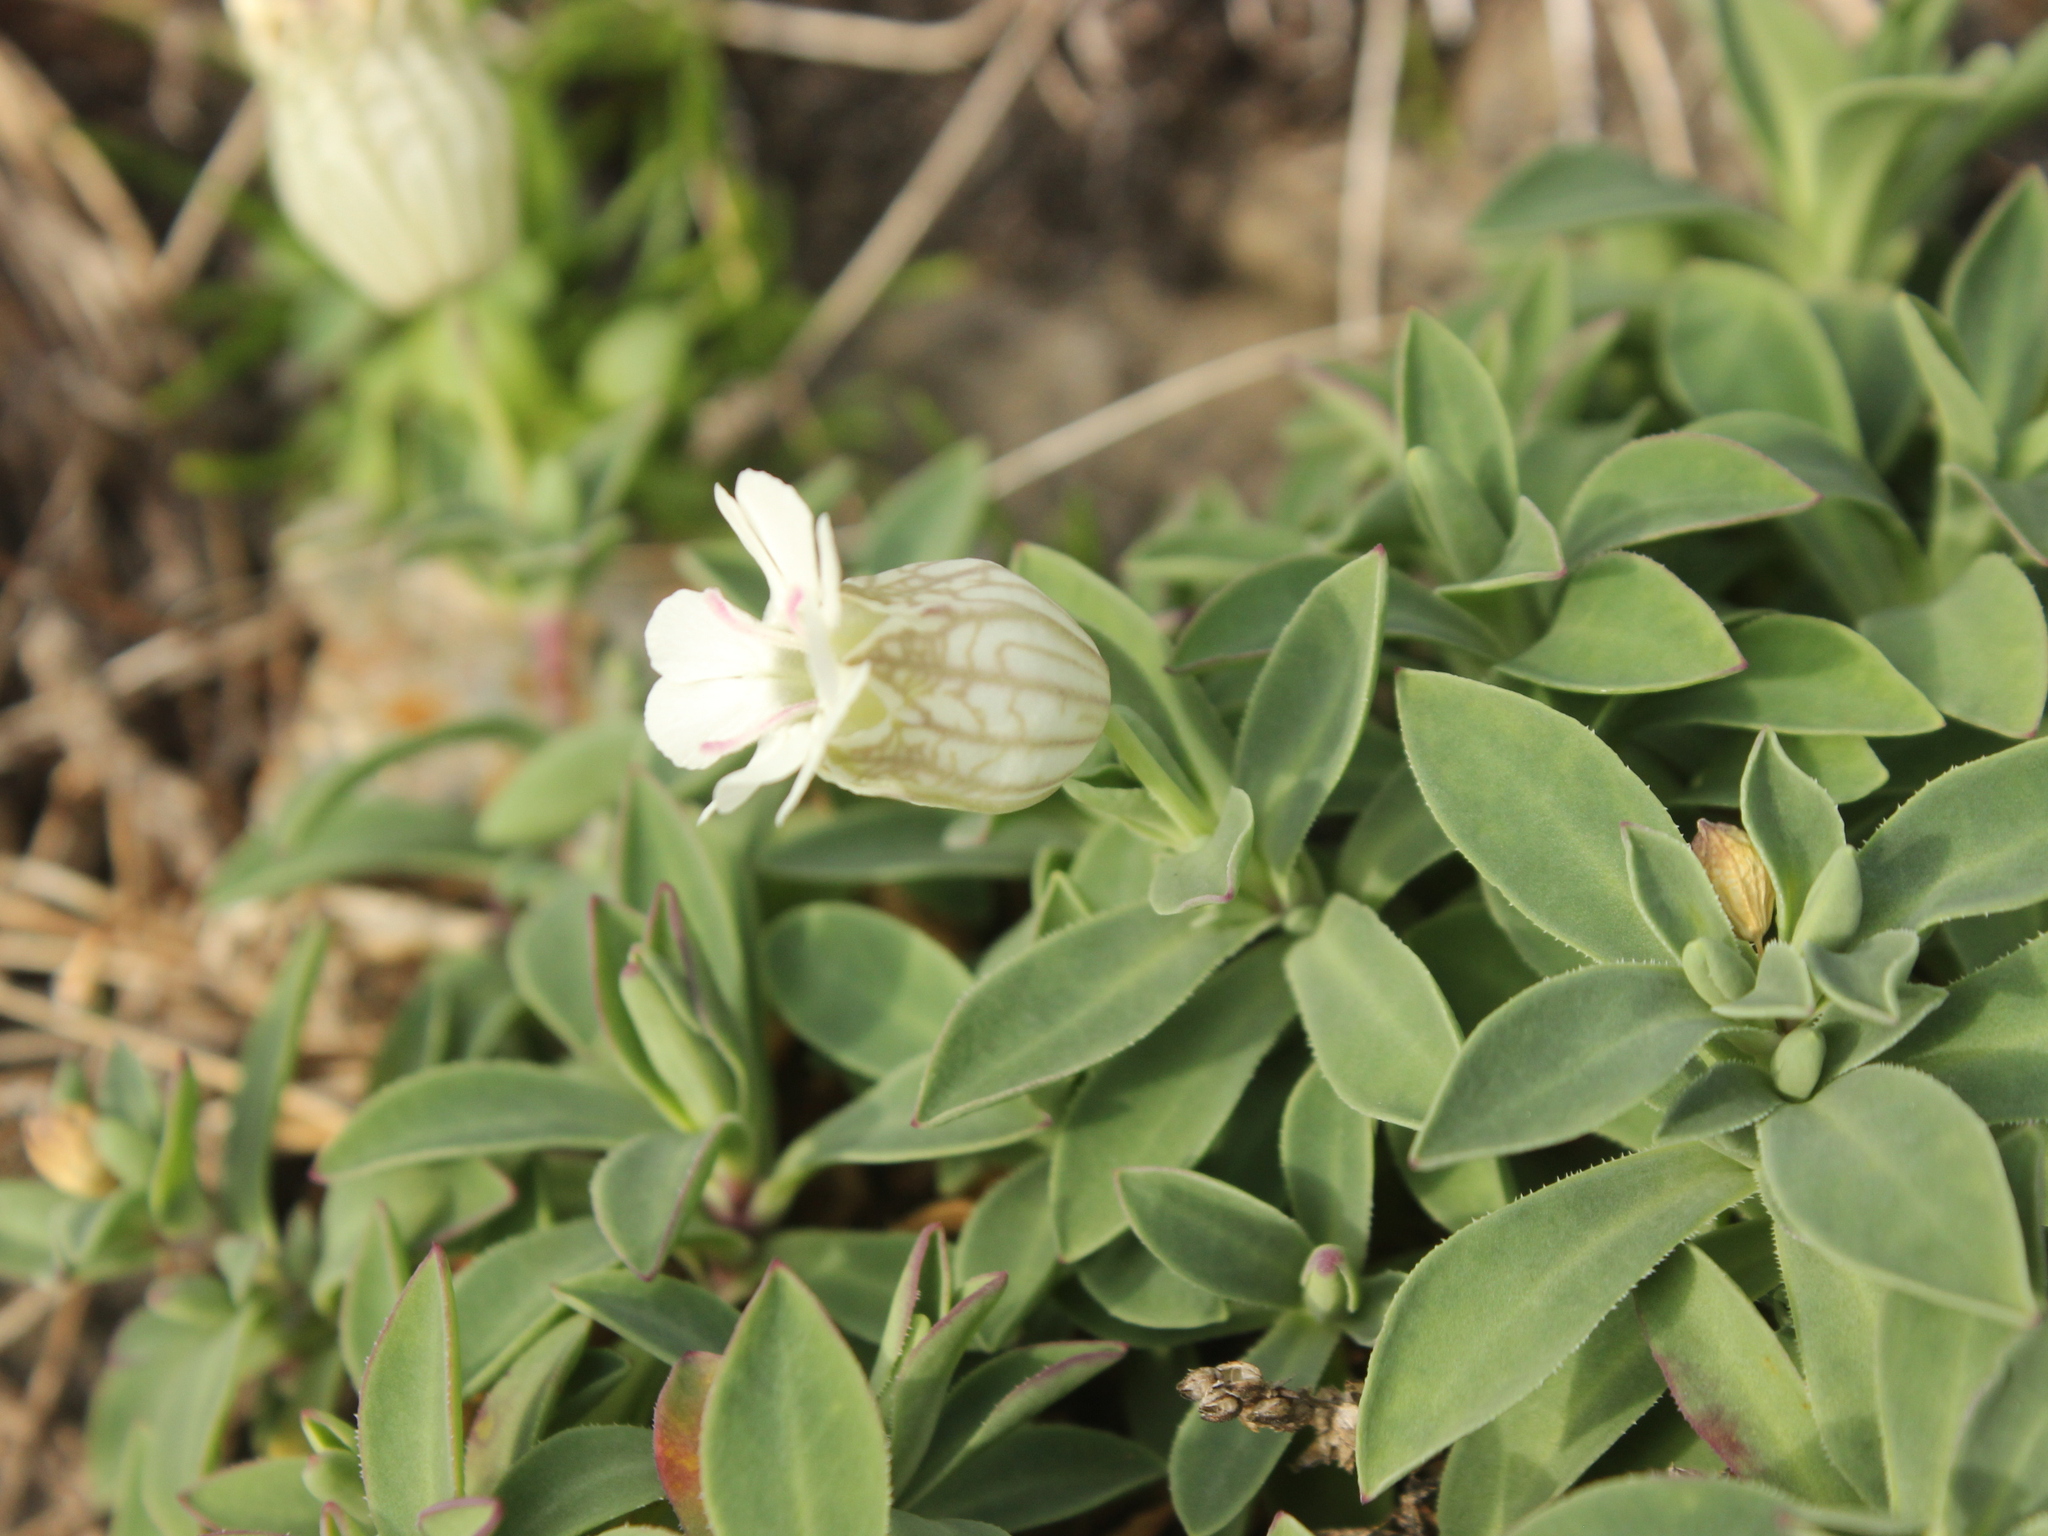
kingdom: Plantae
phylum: Tracheophyta
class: Magnoliopsida
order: Caryophyllales
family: Caryophyllaceae
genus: Silene
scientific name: Silene uniflora
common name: Sea campion
